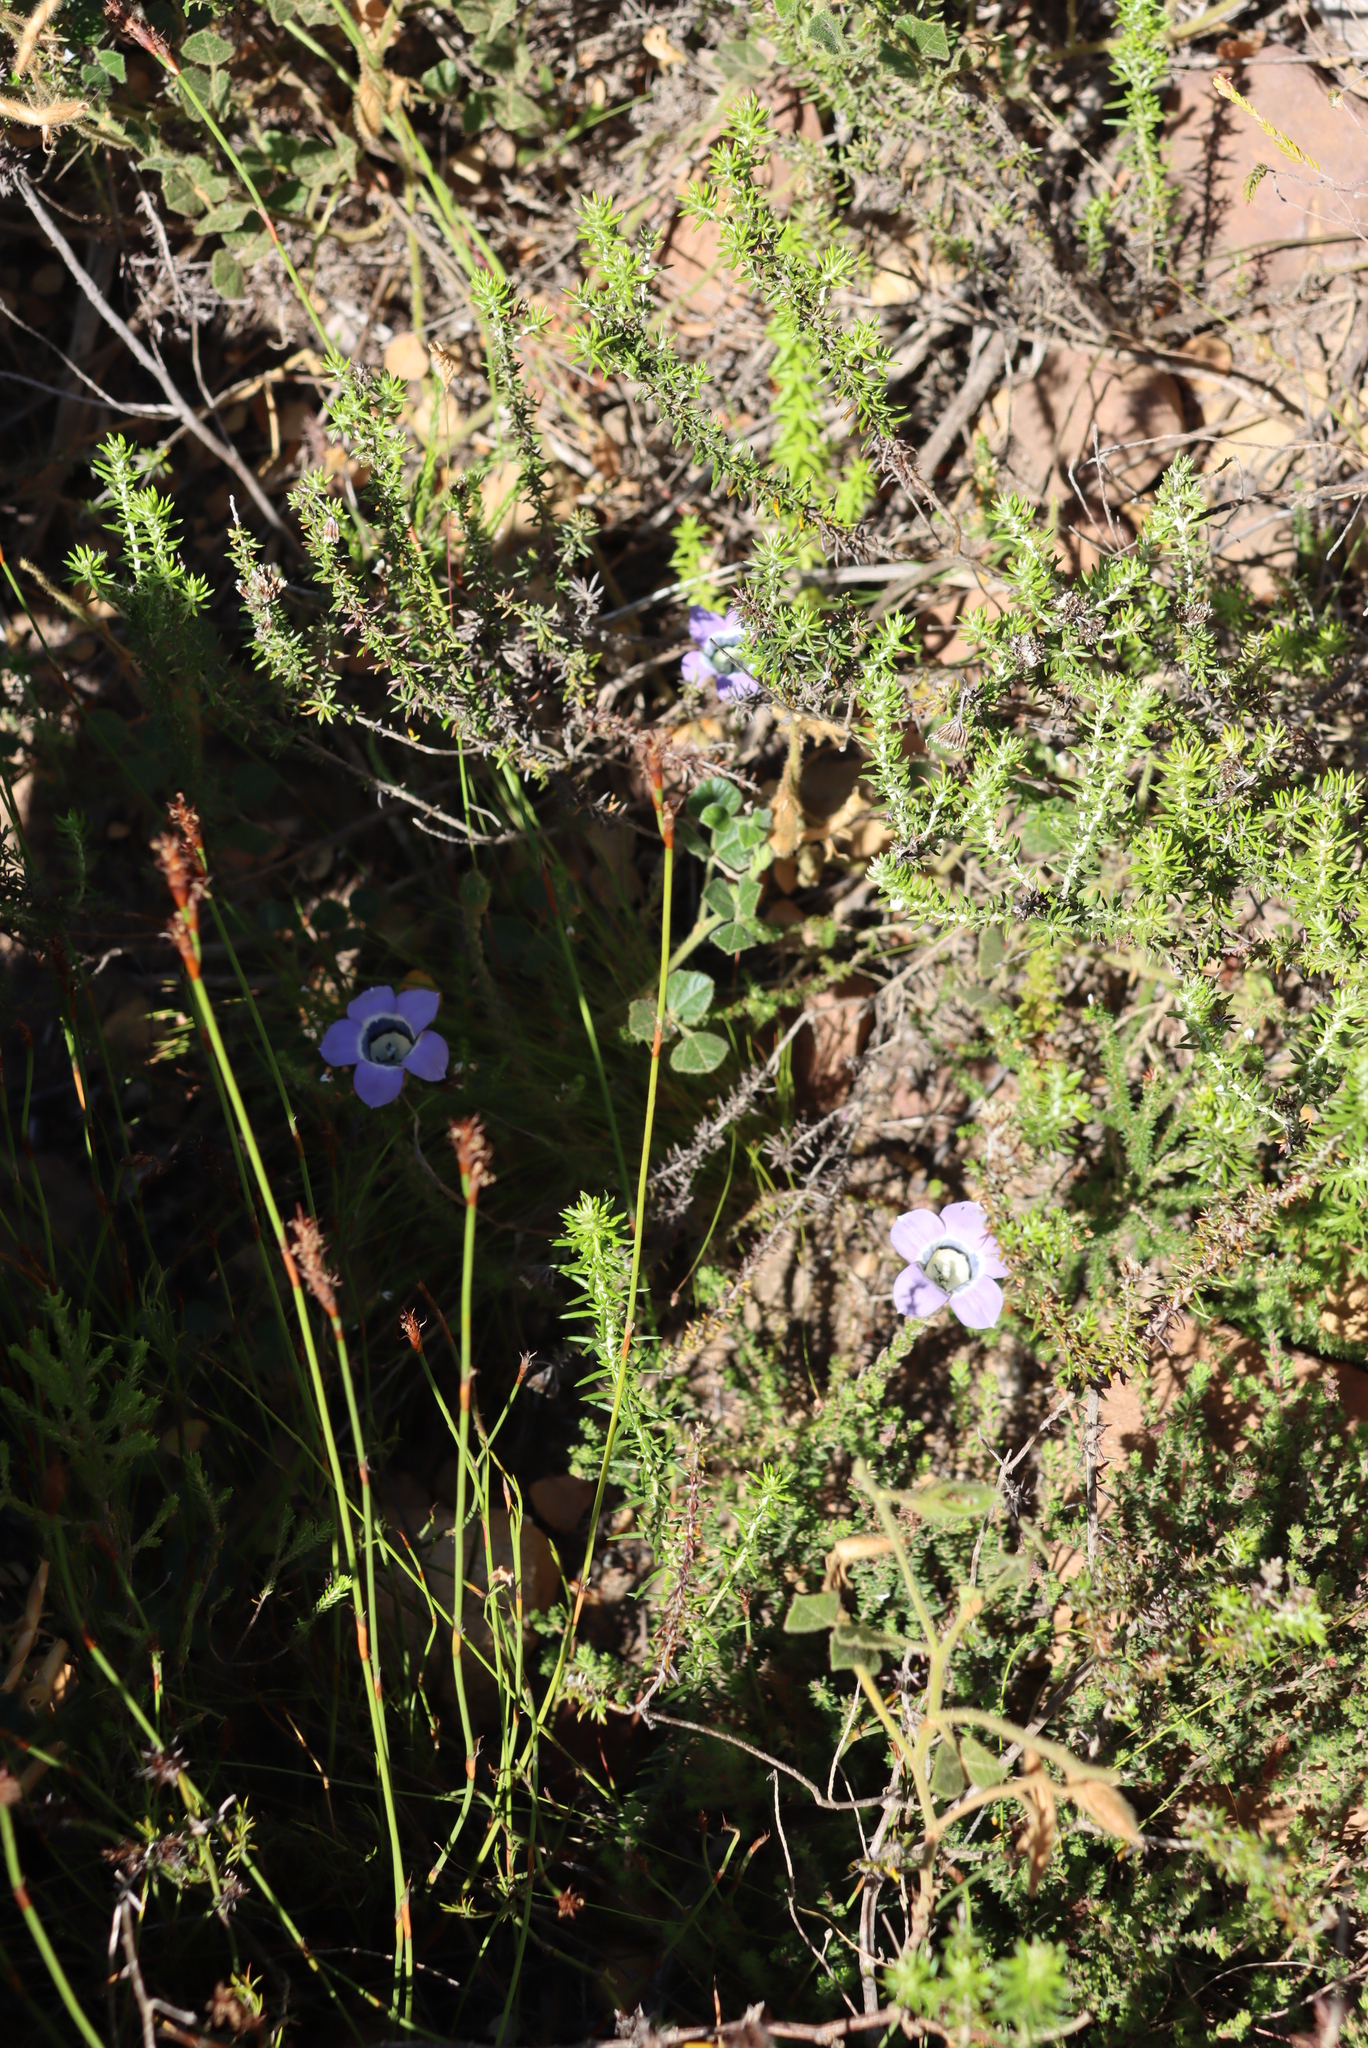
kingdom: Plantae
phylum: Tracheophyta
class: Magnoliopsida
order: Asterales
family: Campanulaceae
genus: Roella
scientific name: Roella ciliata
